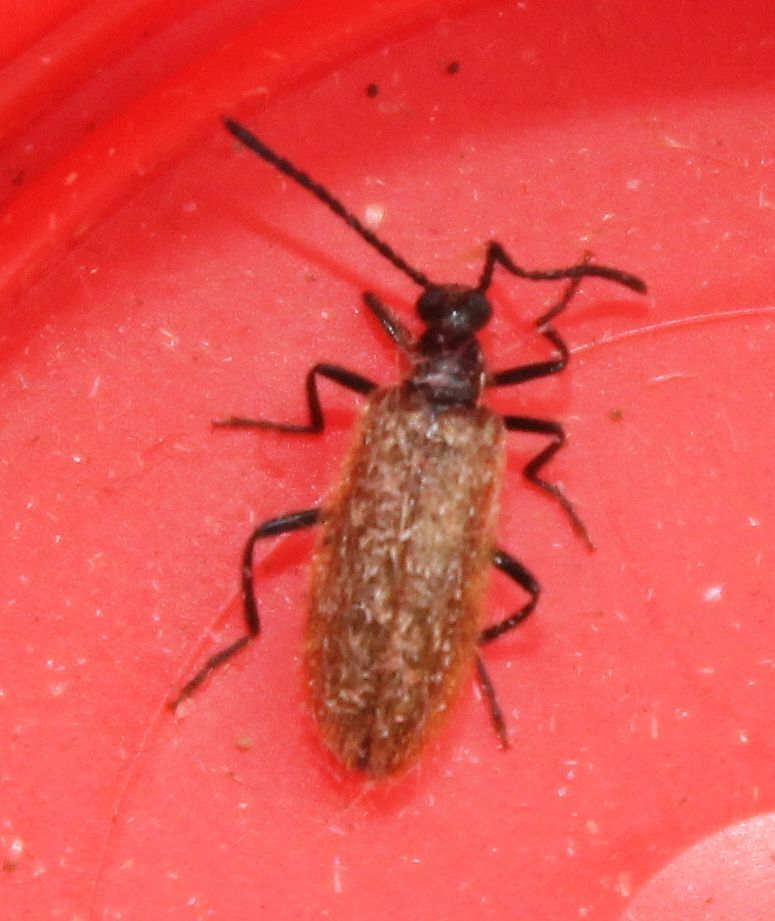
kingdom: Animalia
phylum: Arthropoda
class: Insecta
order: Coleoptera
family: Tenebrionidae
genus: Lagria
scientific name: Lagria hirta
